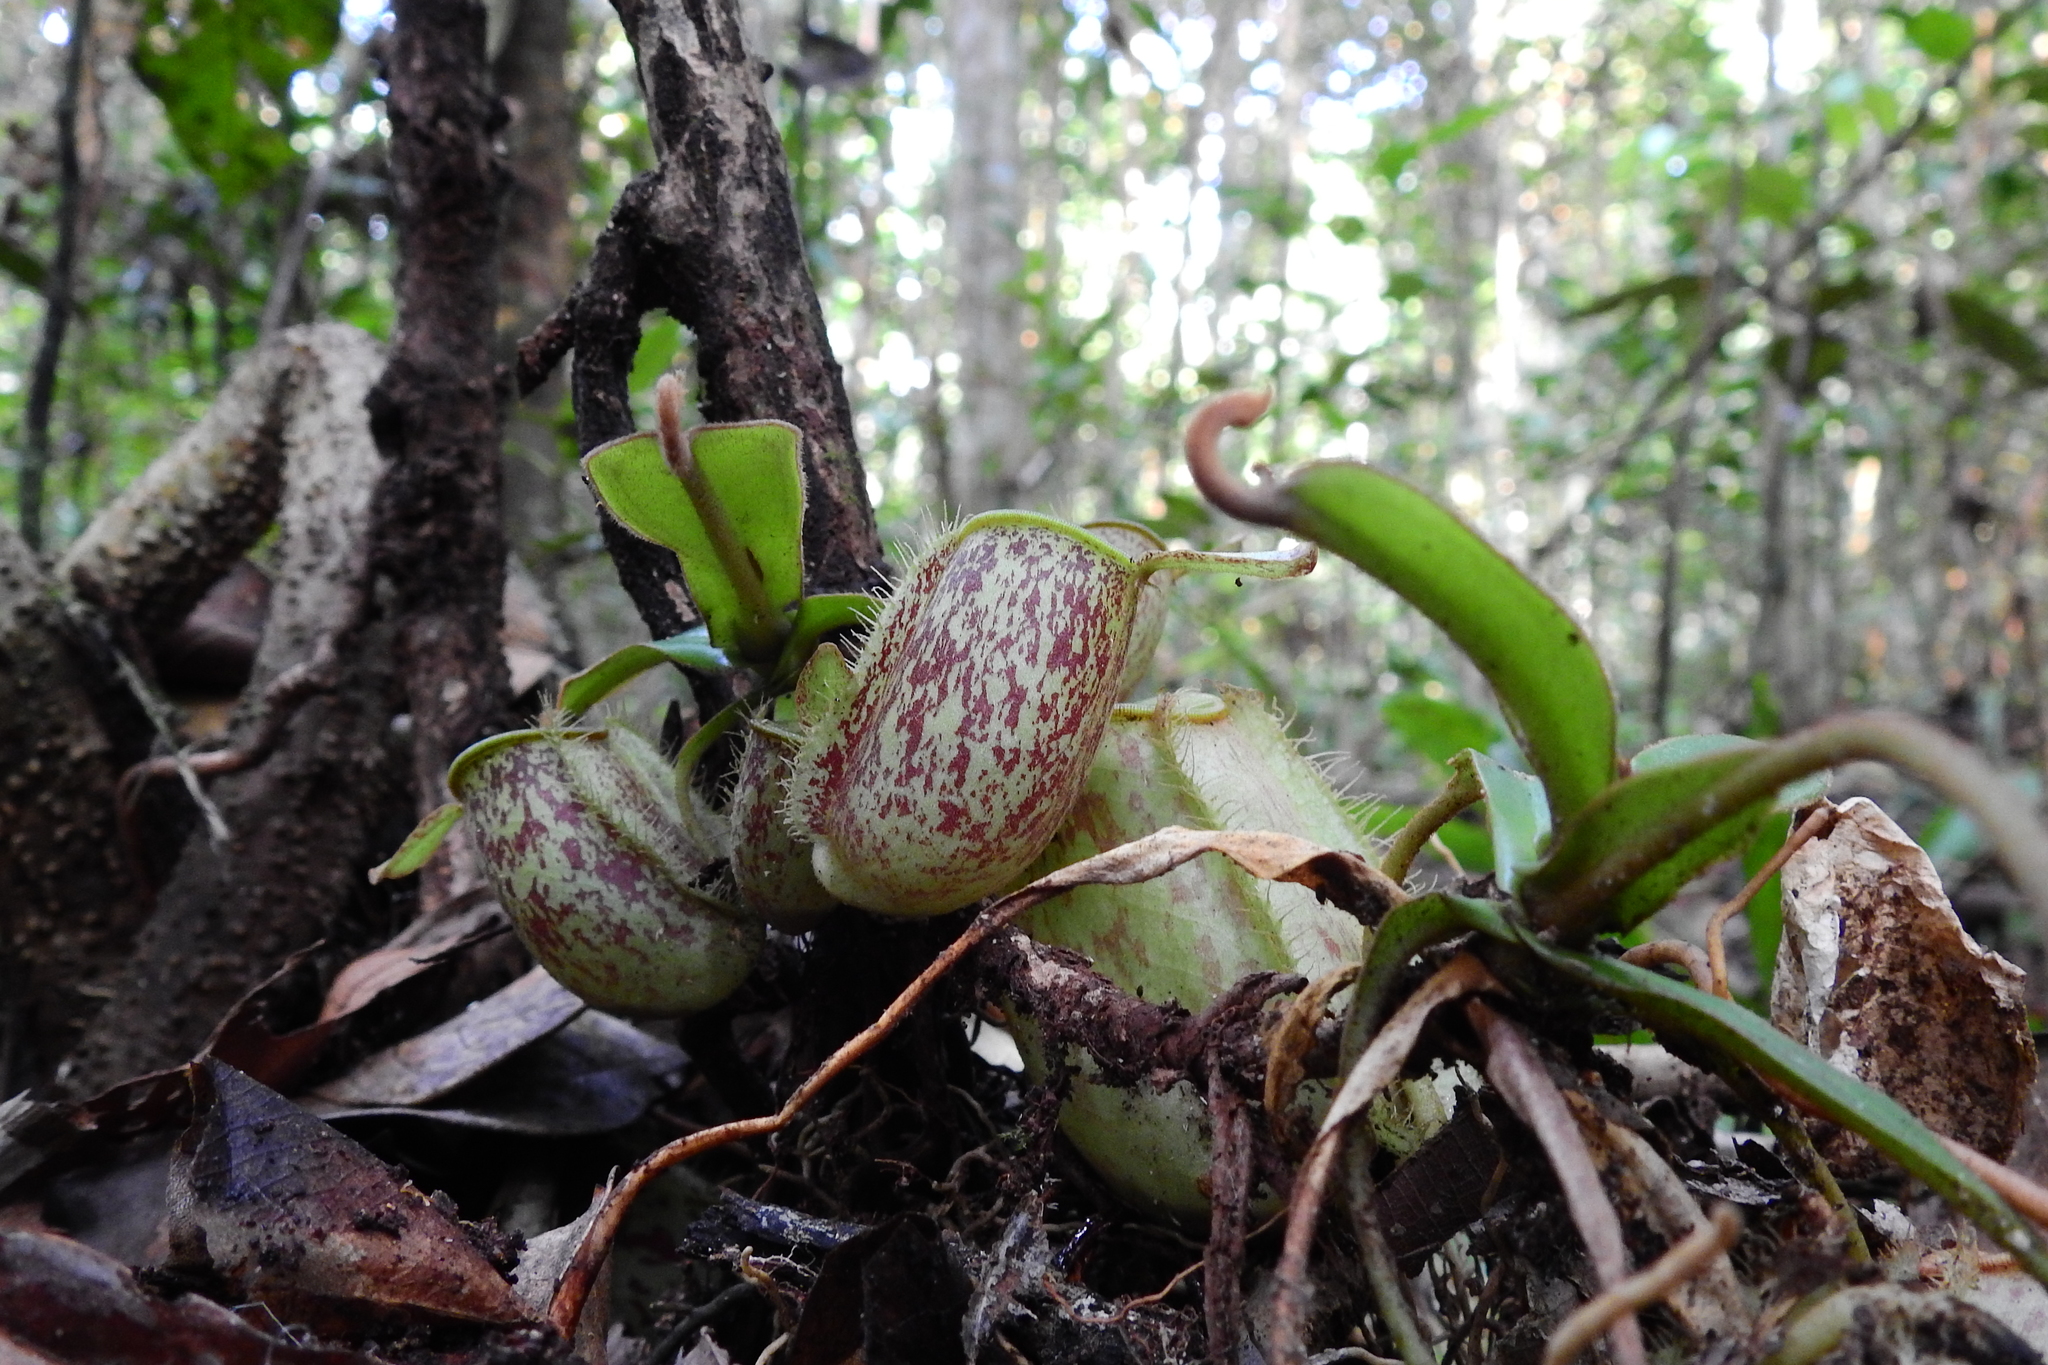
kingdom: Plantae
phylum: Tracheophyta
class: Magnoliopsida
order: Caryophyllales
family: Nepenthaceae
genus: Nepenthes
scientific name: Nepenthes ampullaria
